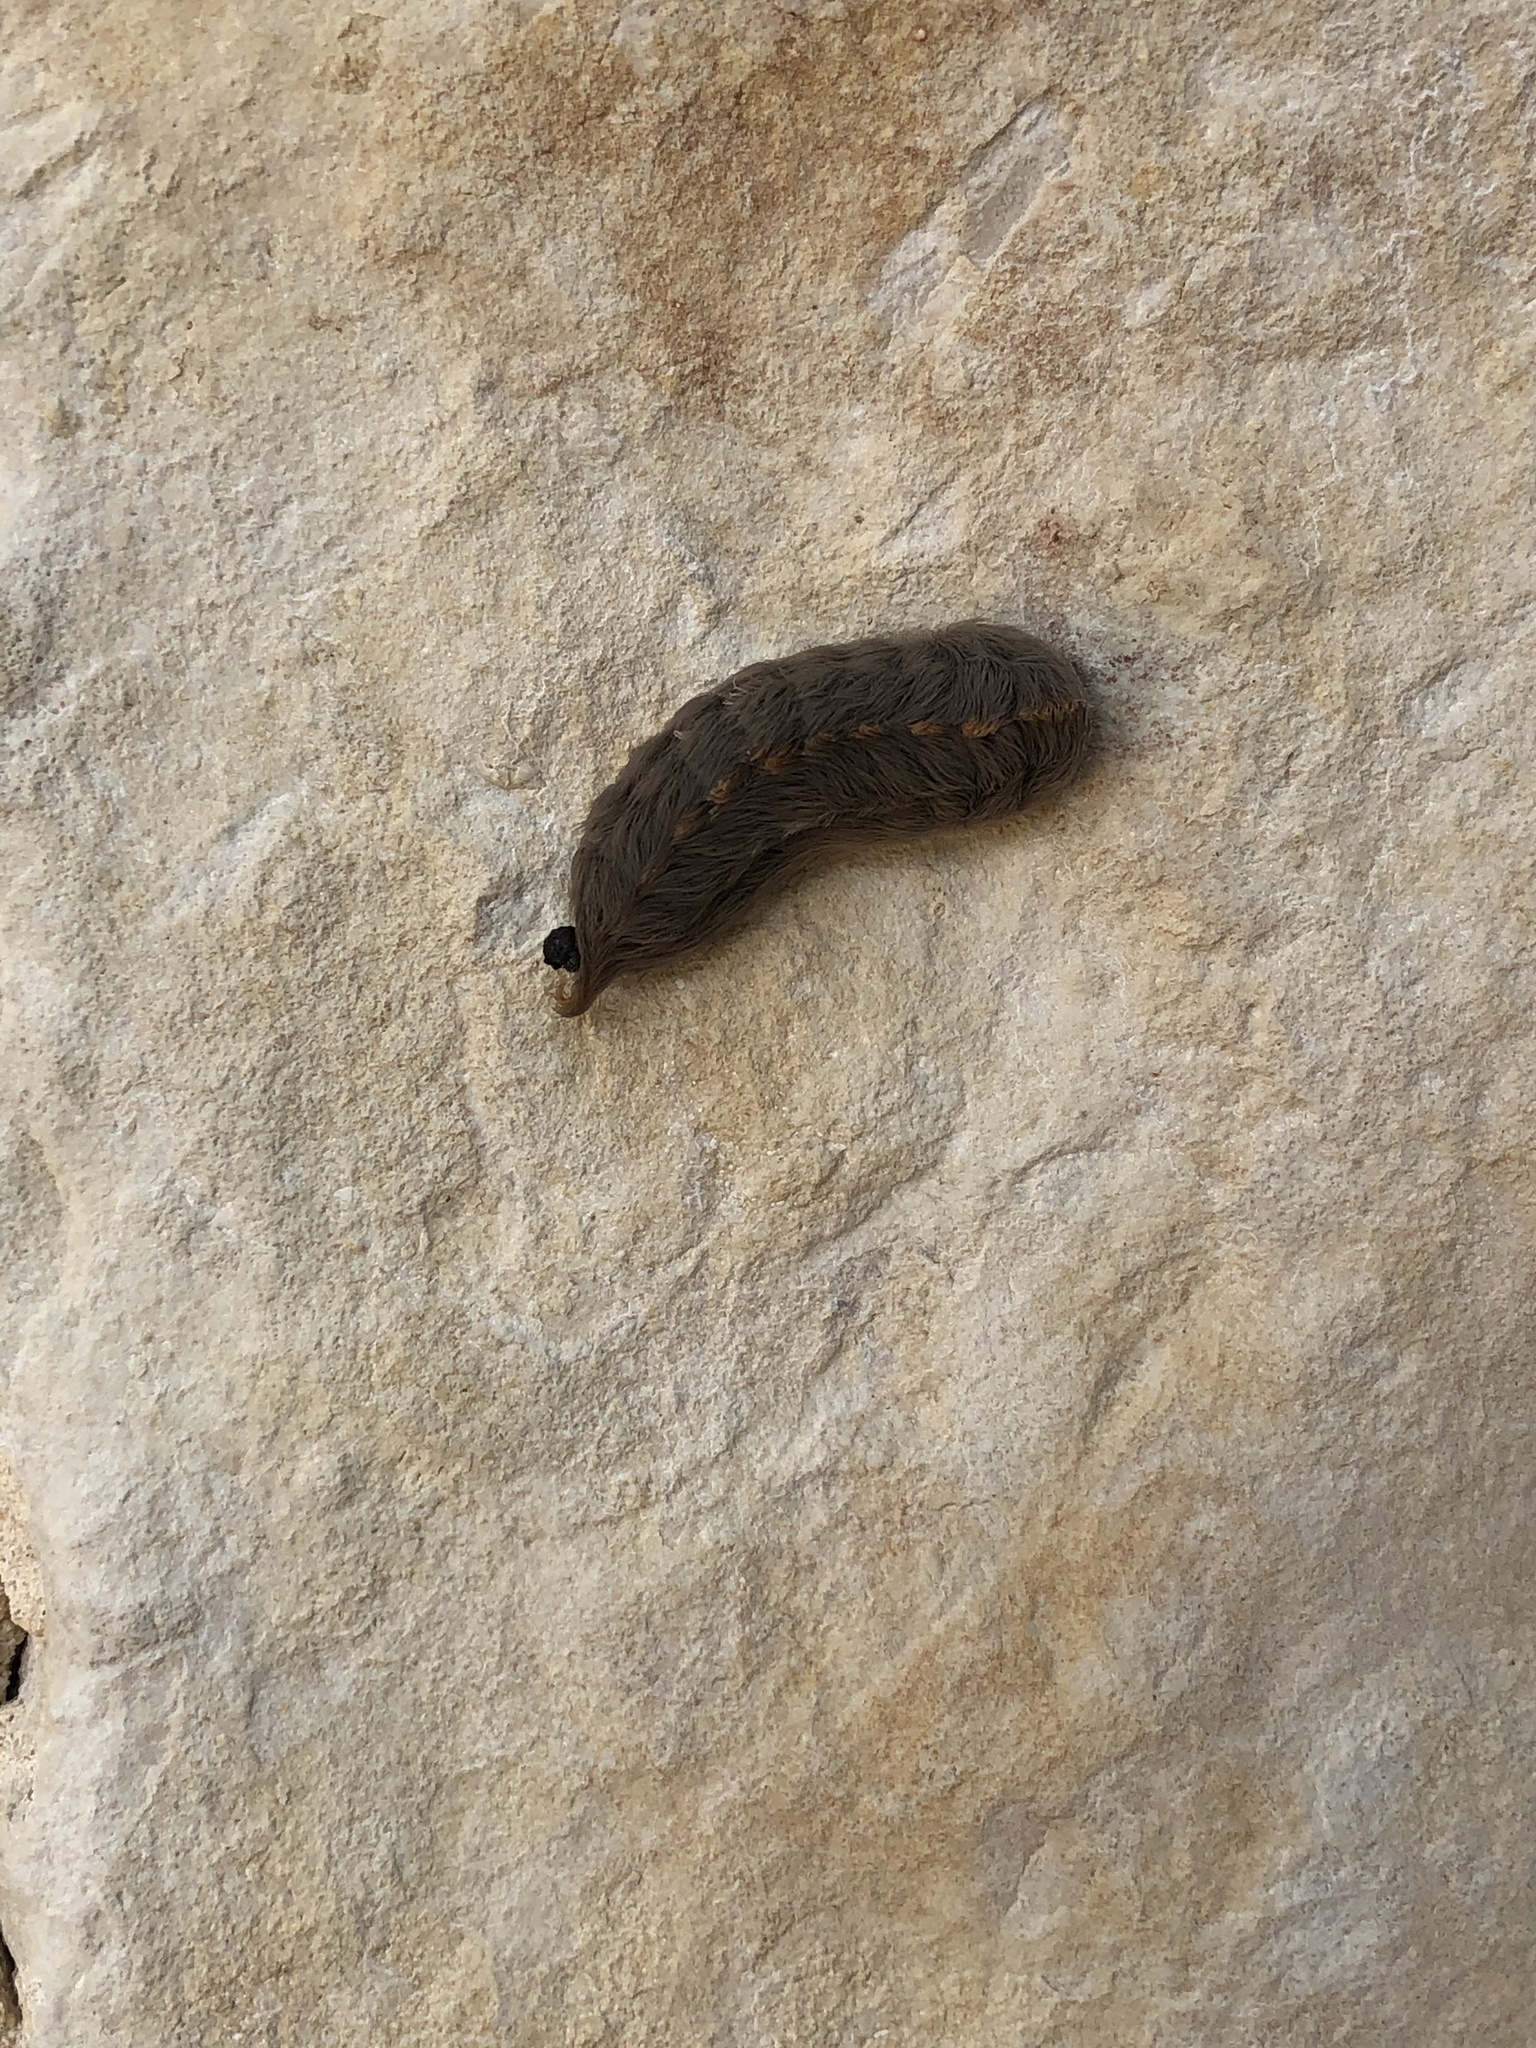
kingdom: Animalia
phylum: Arthropoda
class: Insecta
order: Lepidoptera
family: Megalopygidae
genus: Megalopyge
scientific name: Megalopyge opercularis
